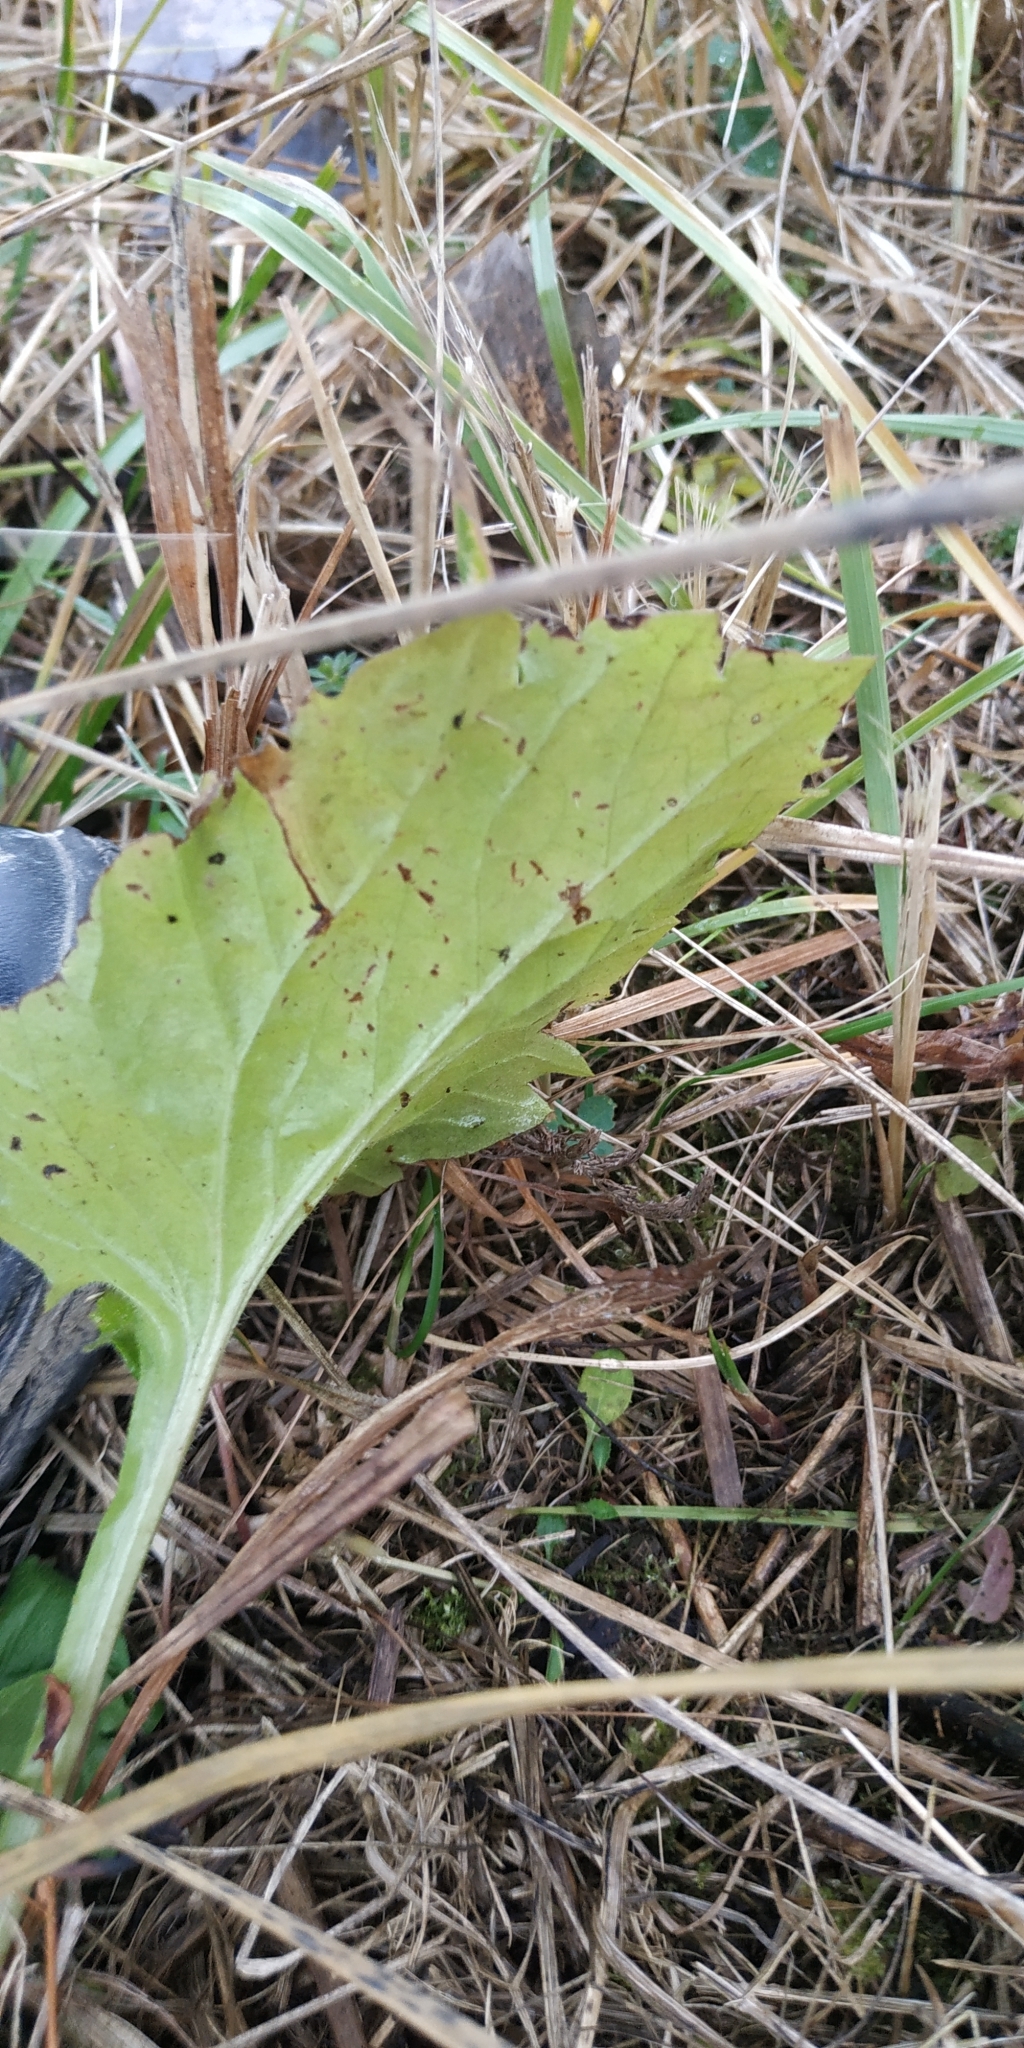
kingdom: Plantae
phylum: Tracheophyta
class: Magnoliopsida
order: Asterales
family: Asteraceae
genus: Erigeron
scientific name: Erigeron annuus
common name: Tall fleabane
